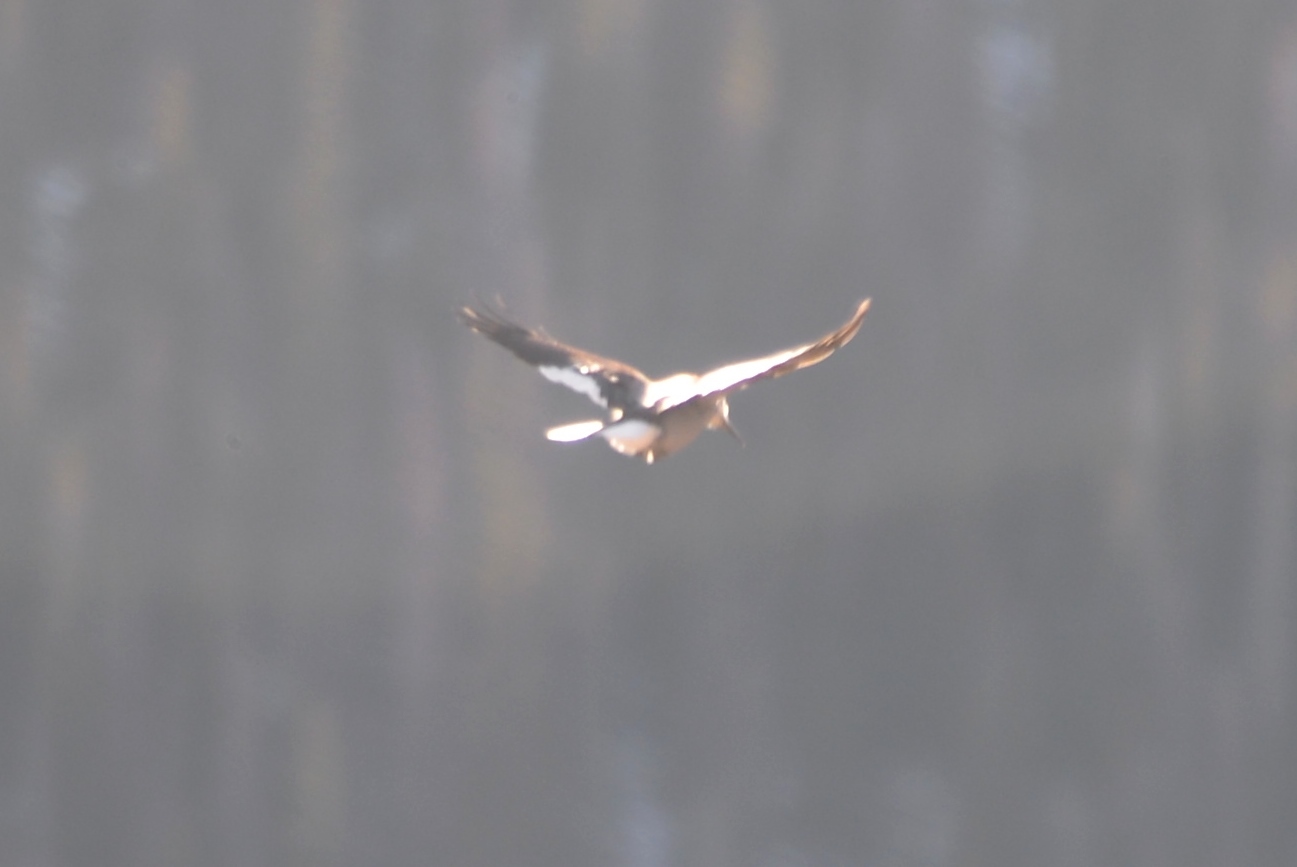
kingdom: Animalia
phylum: Chordata
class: Aves
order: Passeriformes
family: Corvidae
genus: Nucifraga
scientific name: Nucifraga columbiana
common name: Clark's nutcracker
